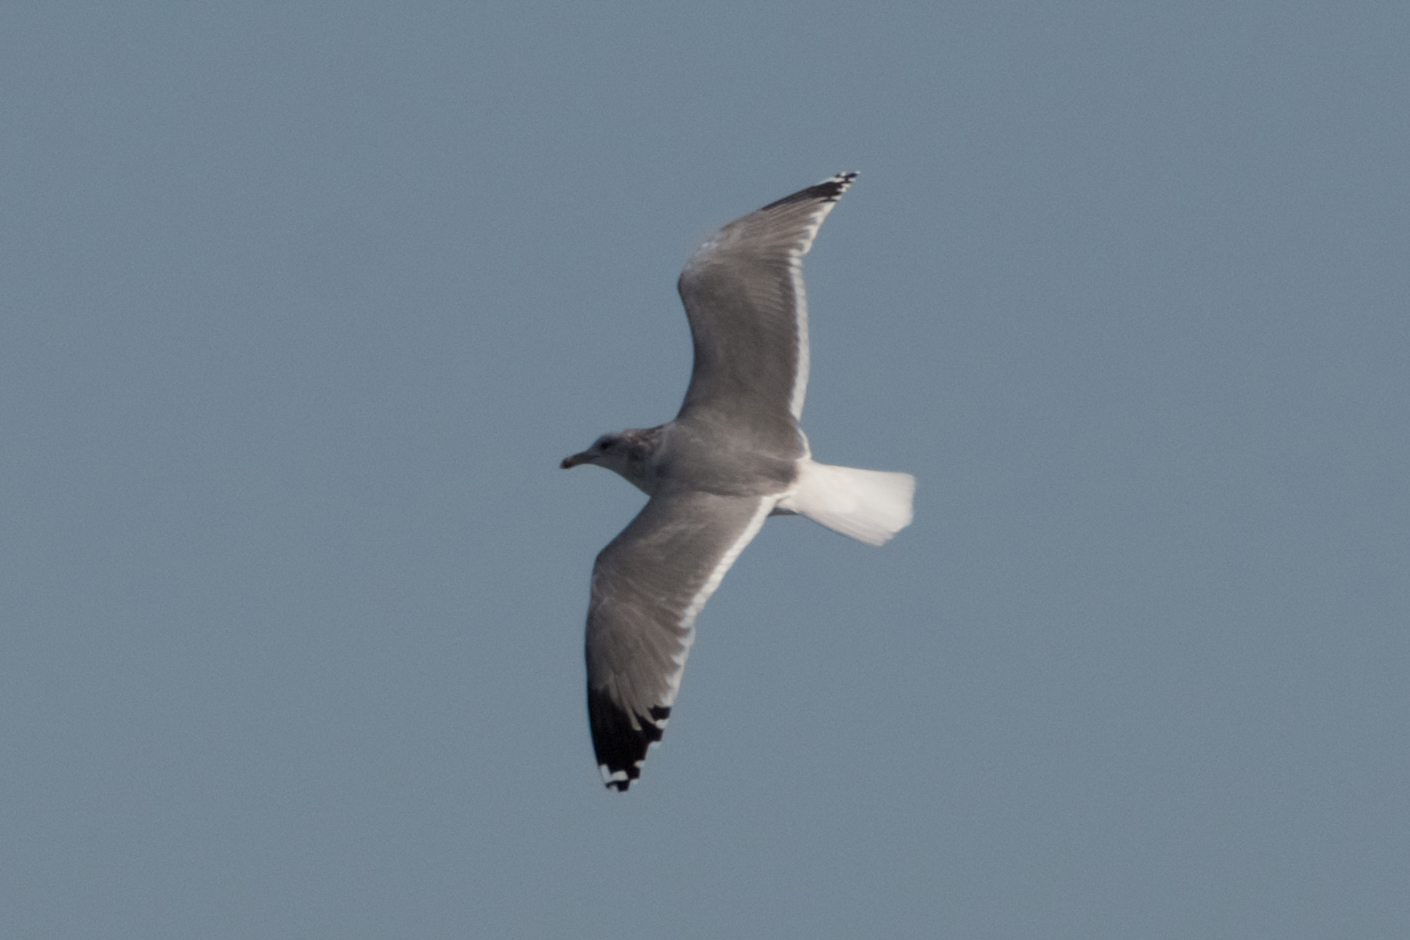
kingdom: Animalia
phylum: Chordata
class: Aves
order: Charadriiformes
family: Laridae
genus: Larus
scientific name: Larus californicus
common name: California gull
